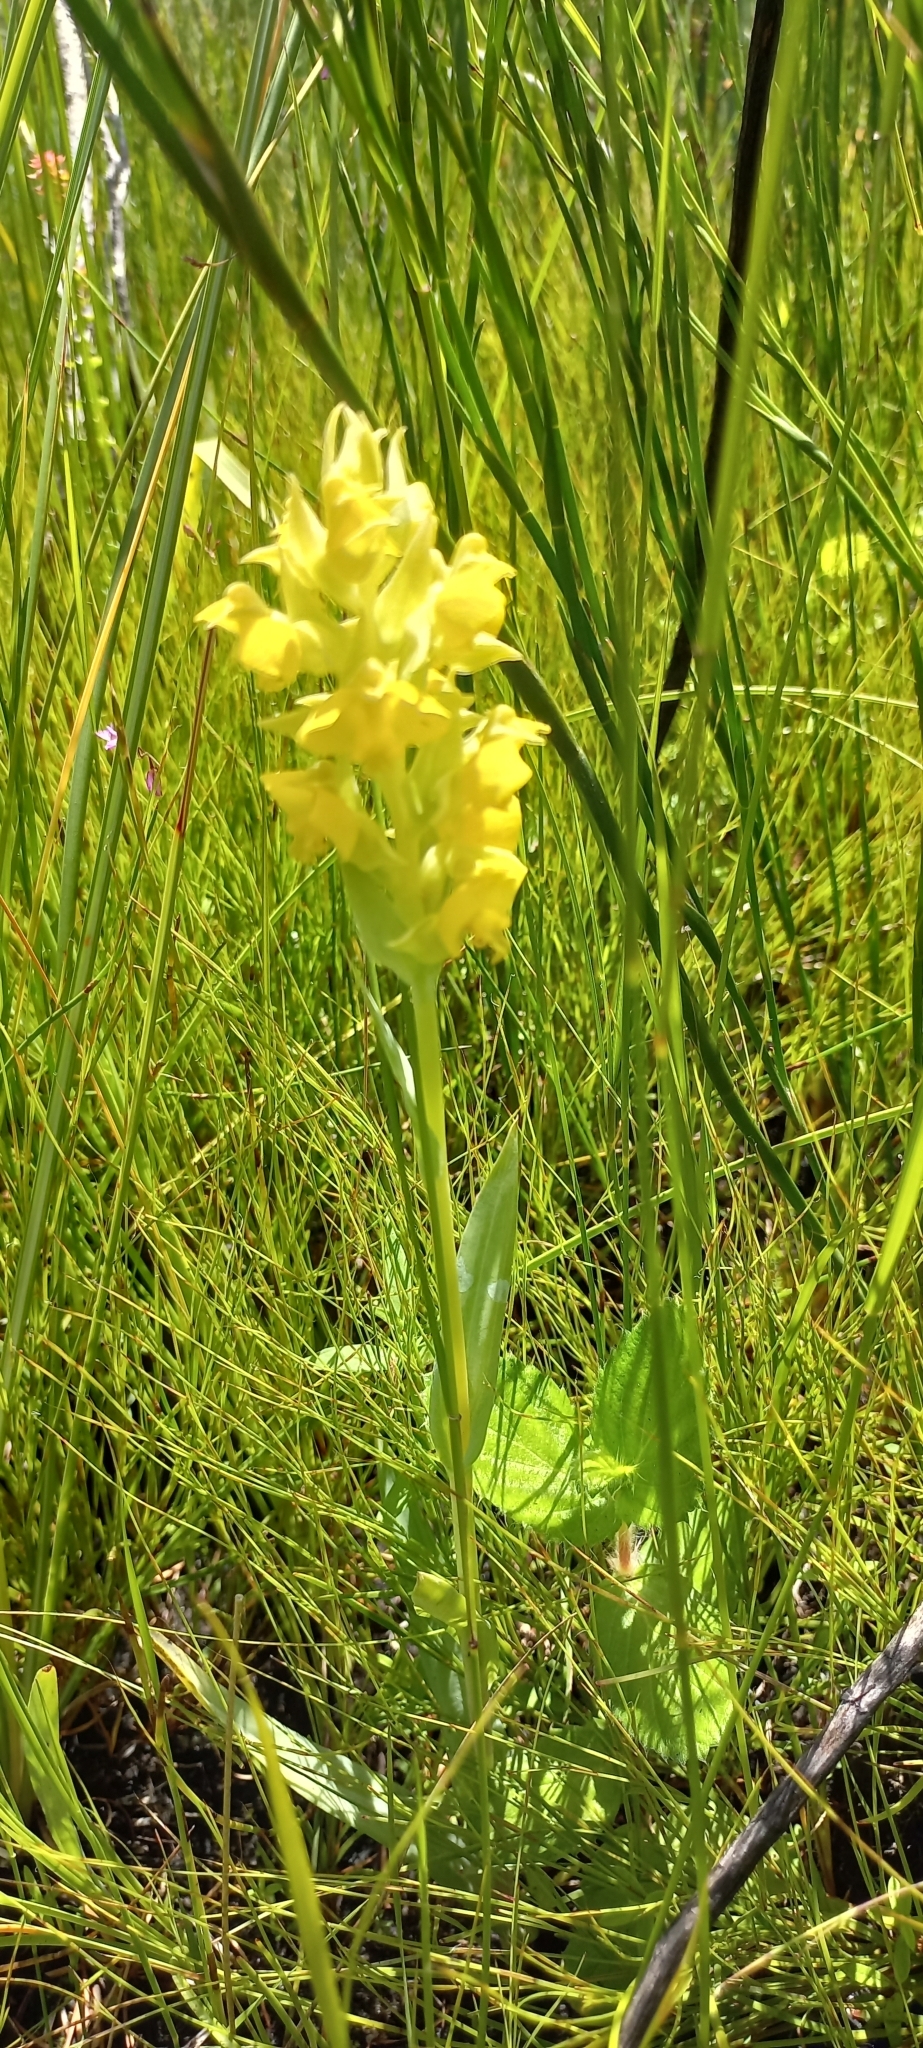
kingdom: Plantae
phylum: Tracheophyta
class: Liliopsida
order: Asparagales
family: Orchidaceae
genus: Pterygodium
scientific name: Pterygodium acutifolium
